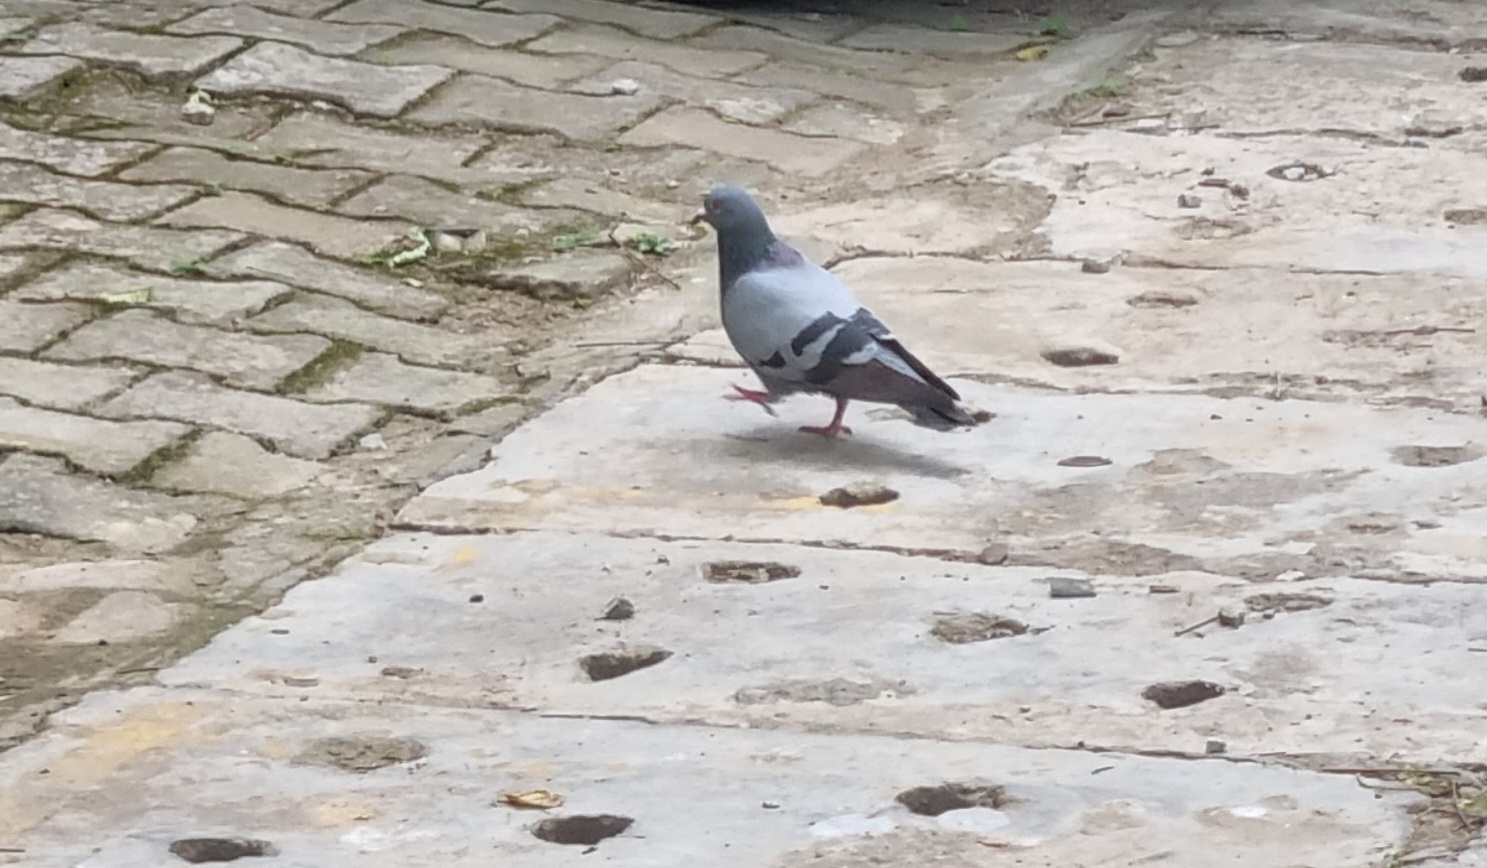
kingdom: Animalia
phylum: Chordata
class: Aves
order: Columbiformes
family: Columbidae
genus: Columba
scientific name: Columba livia
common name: Rock pigeon
